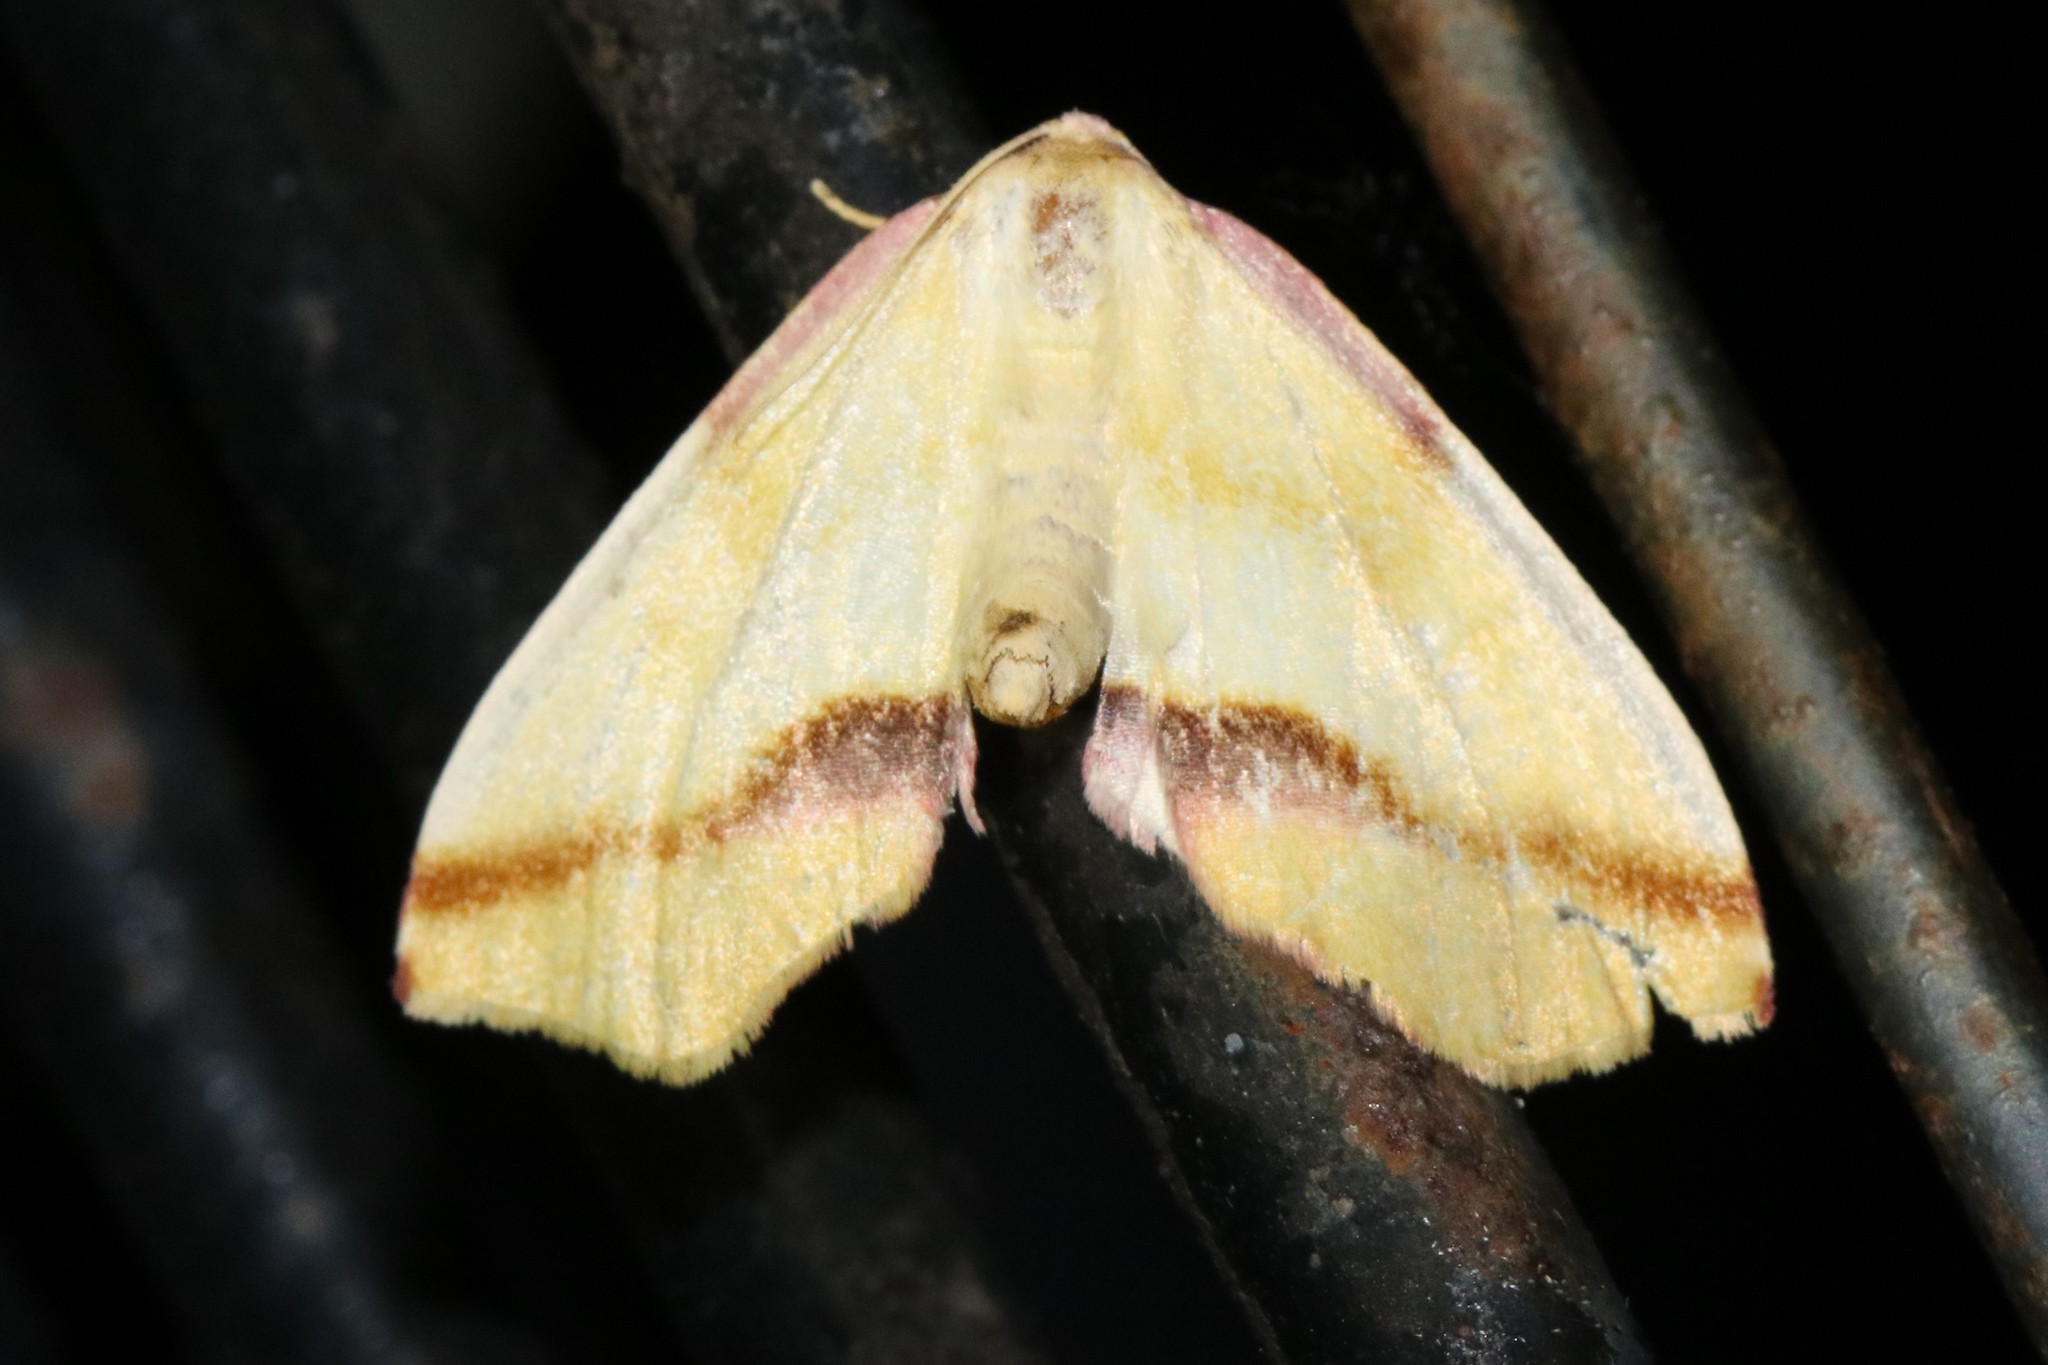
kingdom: Animalia
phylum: Arthropoda
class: Insecta
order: Lepidoptera
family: Geometridae
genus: Plagodis
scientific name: Plagodis serinaria
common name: Lemon plagodis
